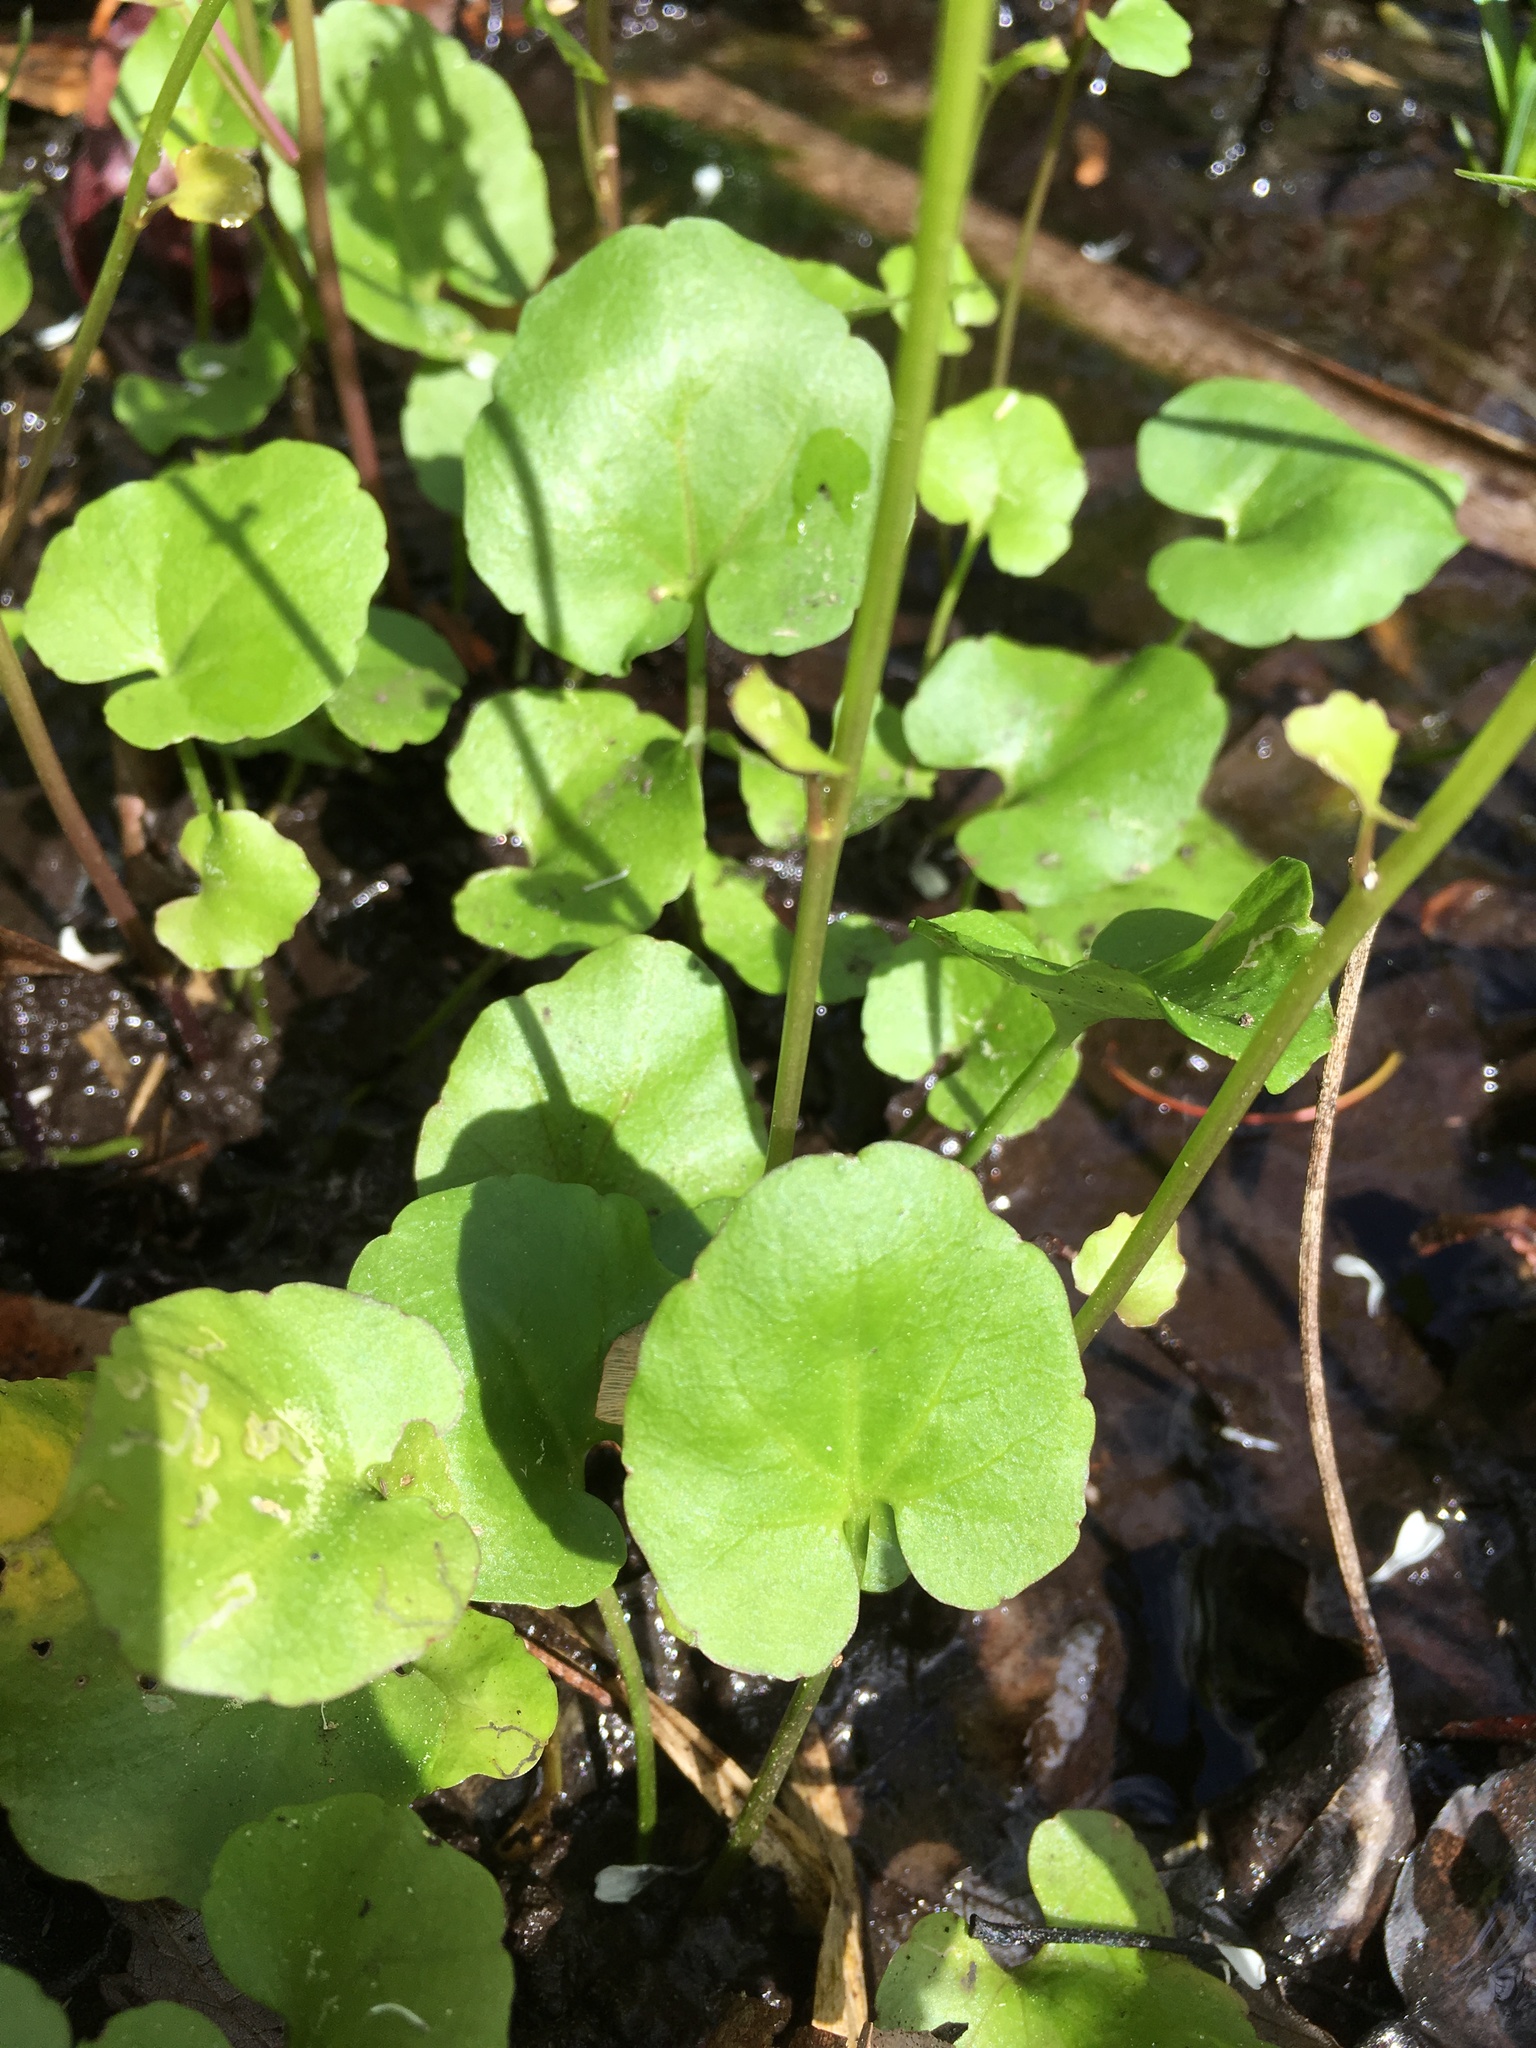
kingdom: Plantae
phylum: Tracheophyta
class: Magnoliopsida
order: Brassicales
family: Brassicaceae
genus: Cardamine
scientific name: Cardamine bulbosa
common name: Spring cress
